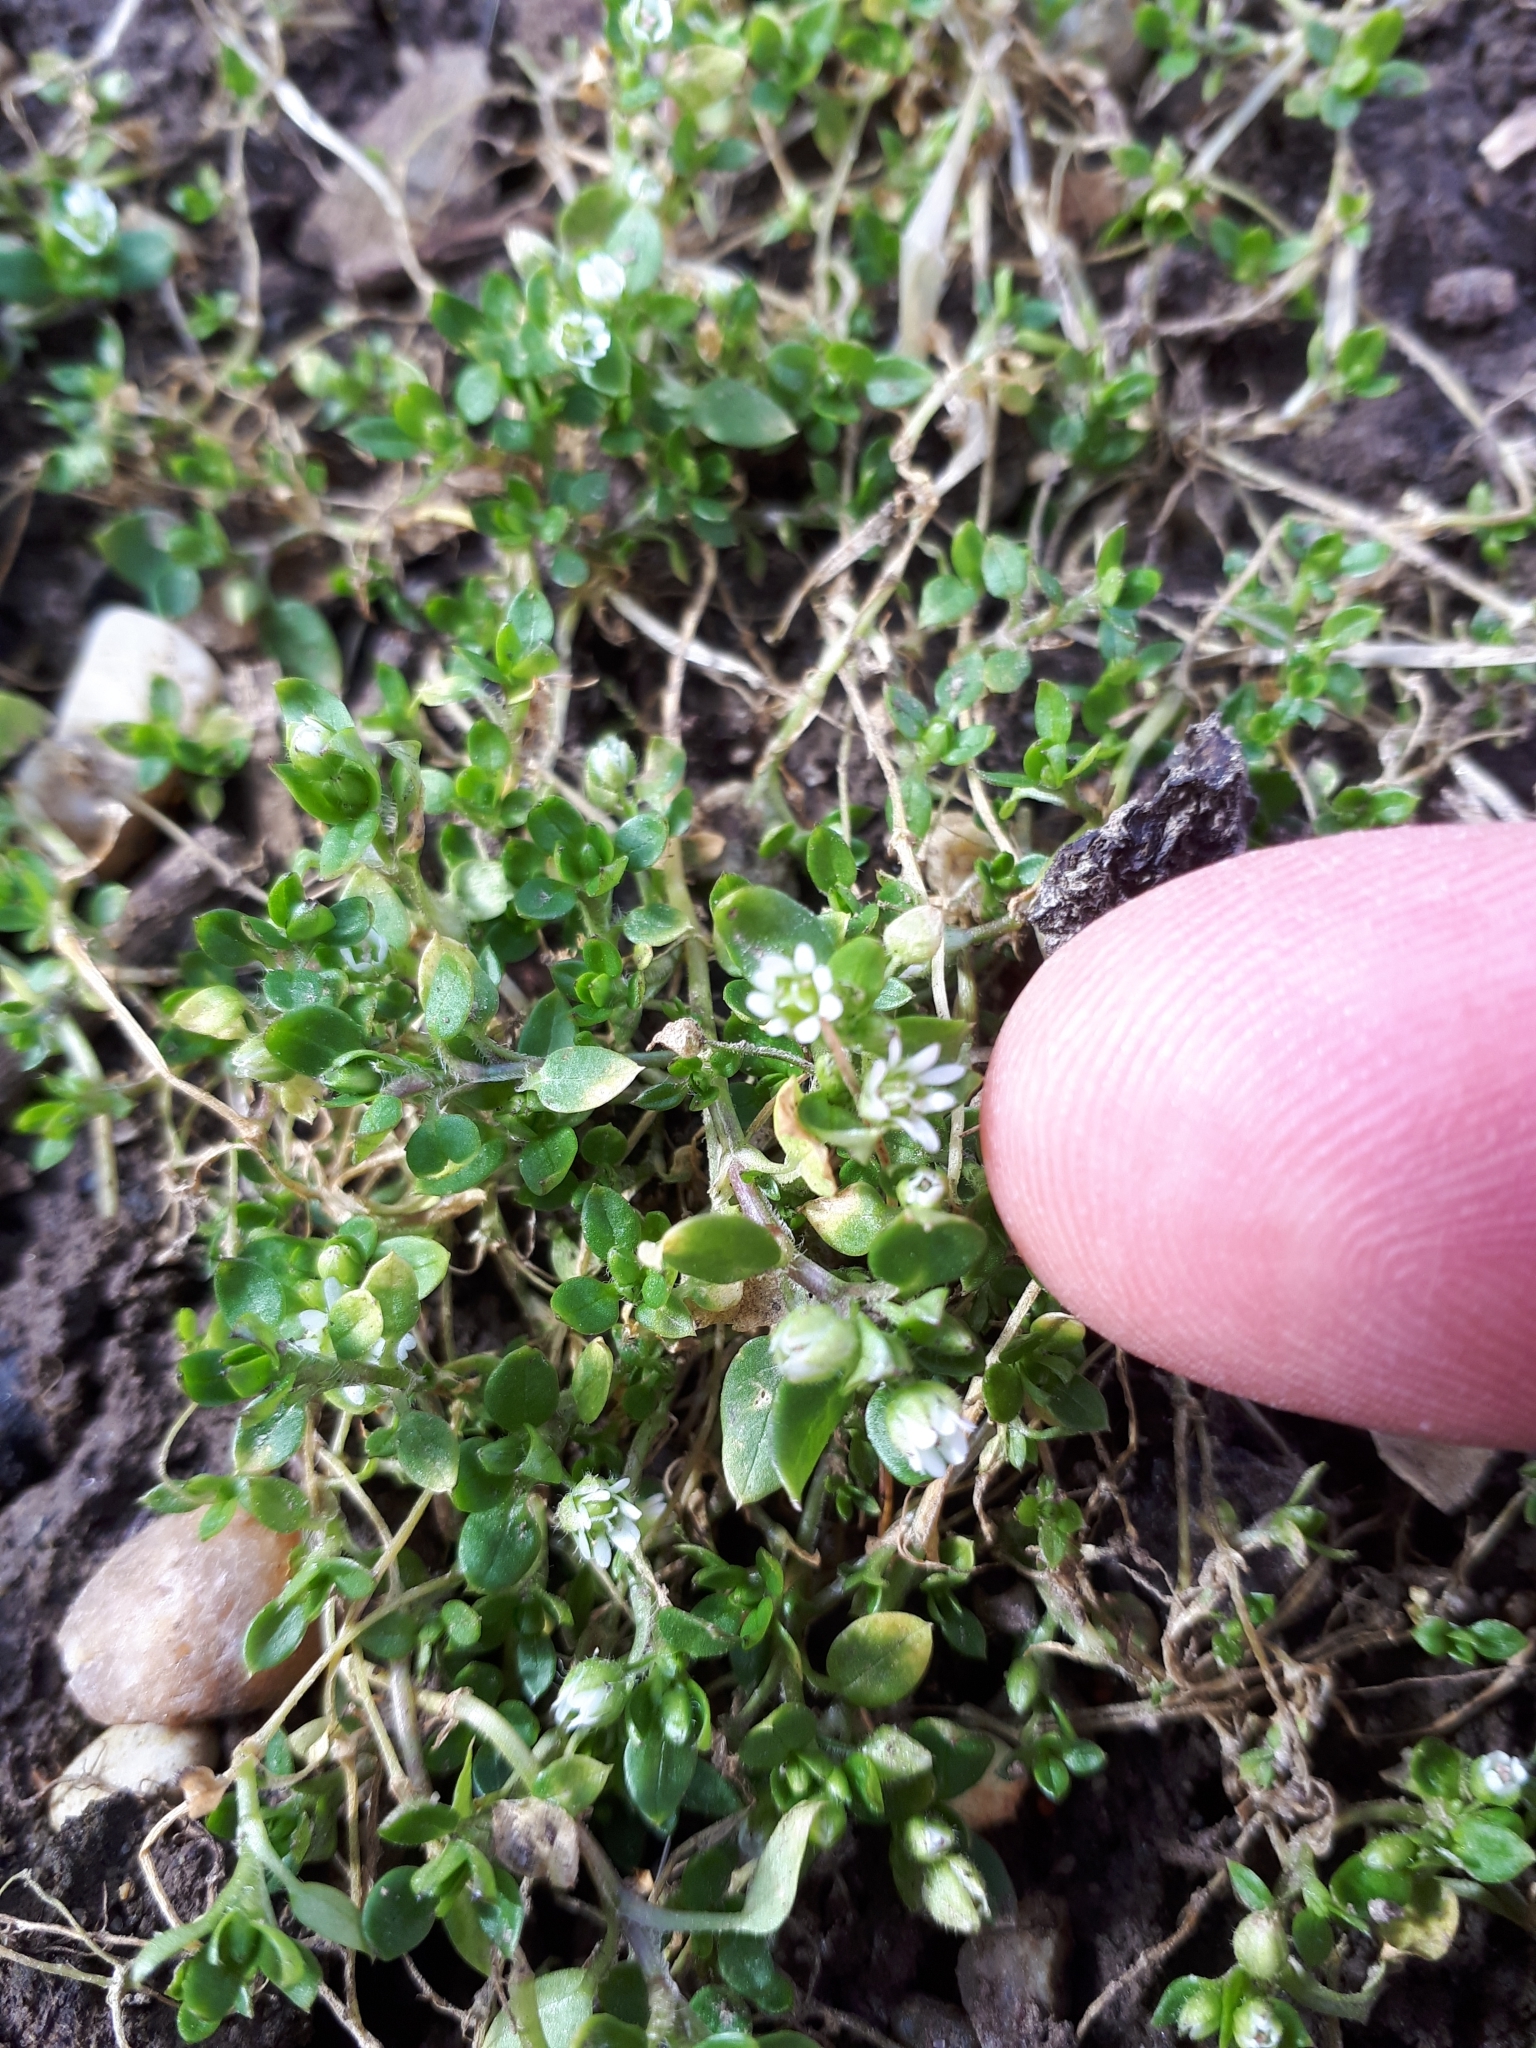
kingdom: Plantae
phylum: Tracheophyta
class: Magnoliopsida
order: Caryophyllales
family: Caryophyllaceae
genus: Stellaria
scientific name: Stellaria media
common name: Common chickweed
